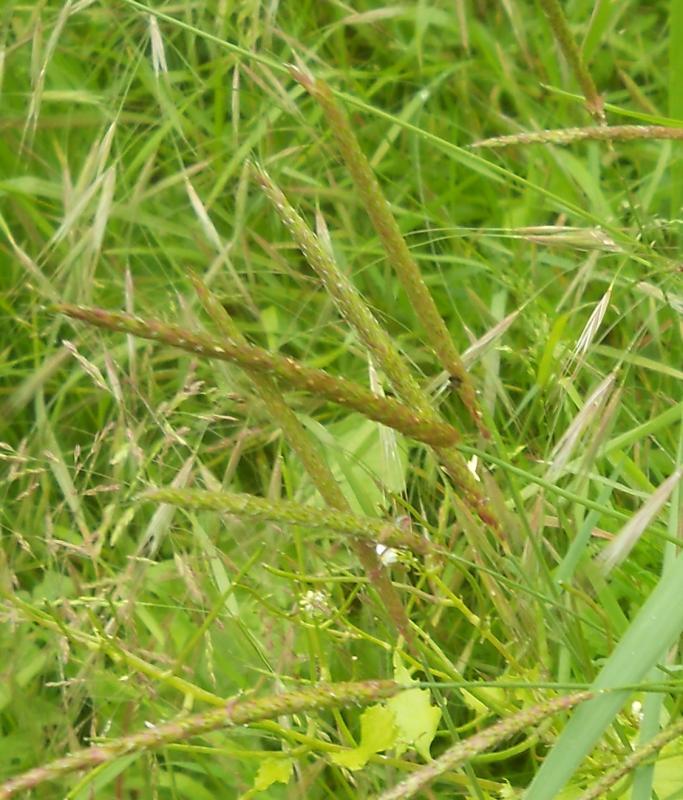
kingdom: Plantae
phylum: Tracheophyta
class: Liliopsida
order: Poales
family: Poaceae
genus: Alopecurus
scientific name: Alopecurus myosuroides
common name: Black-grass
